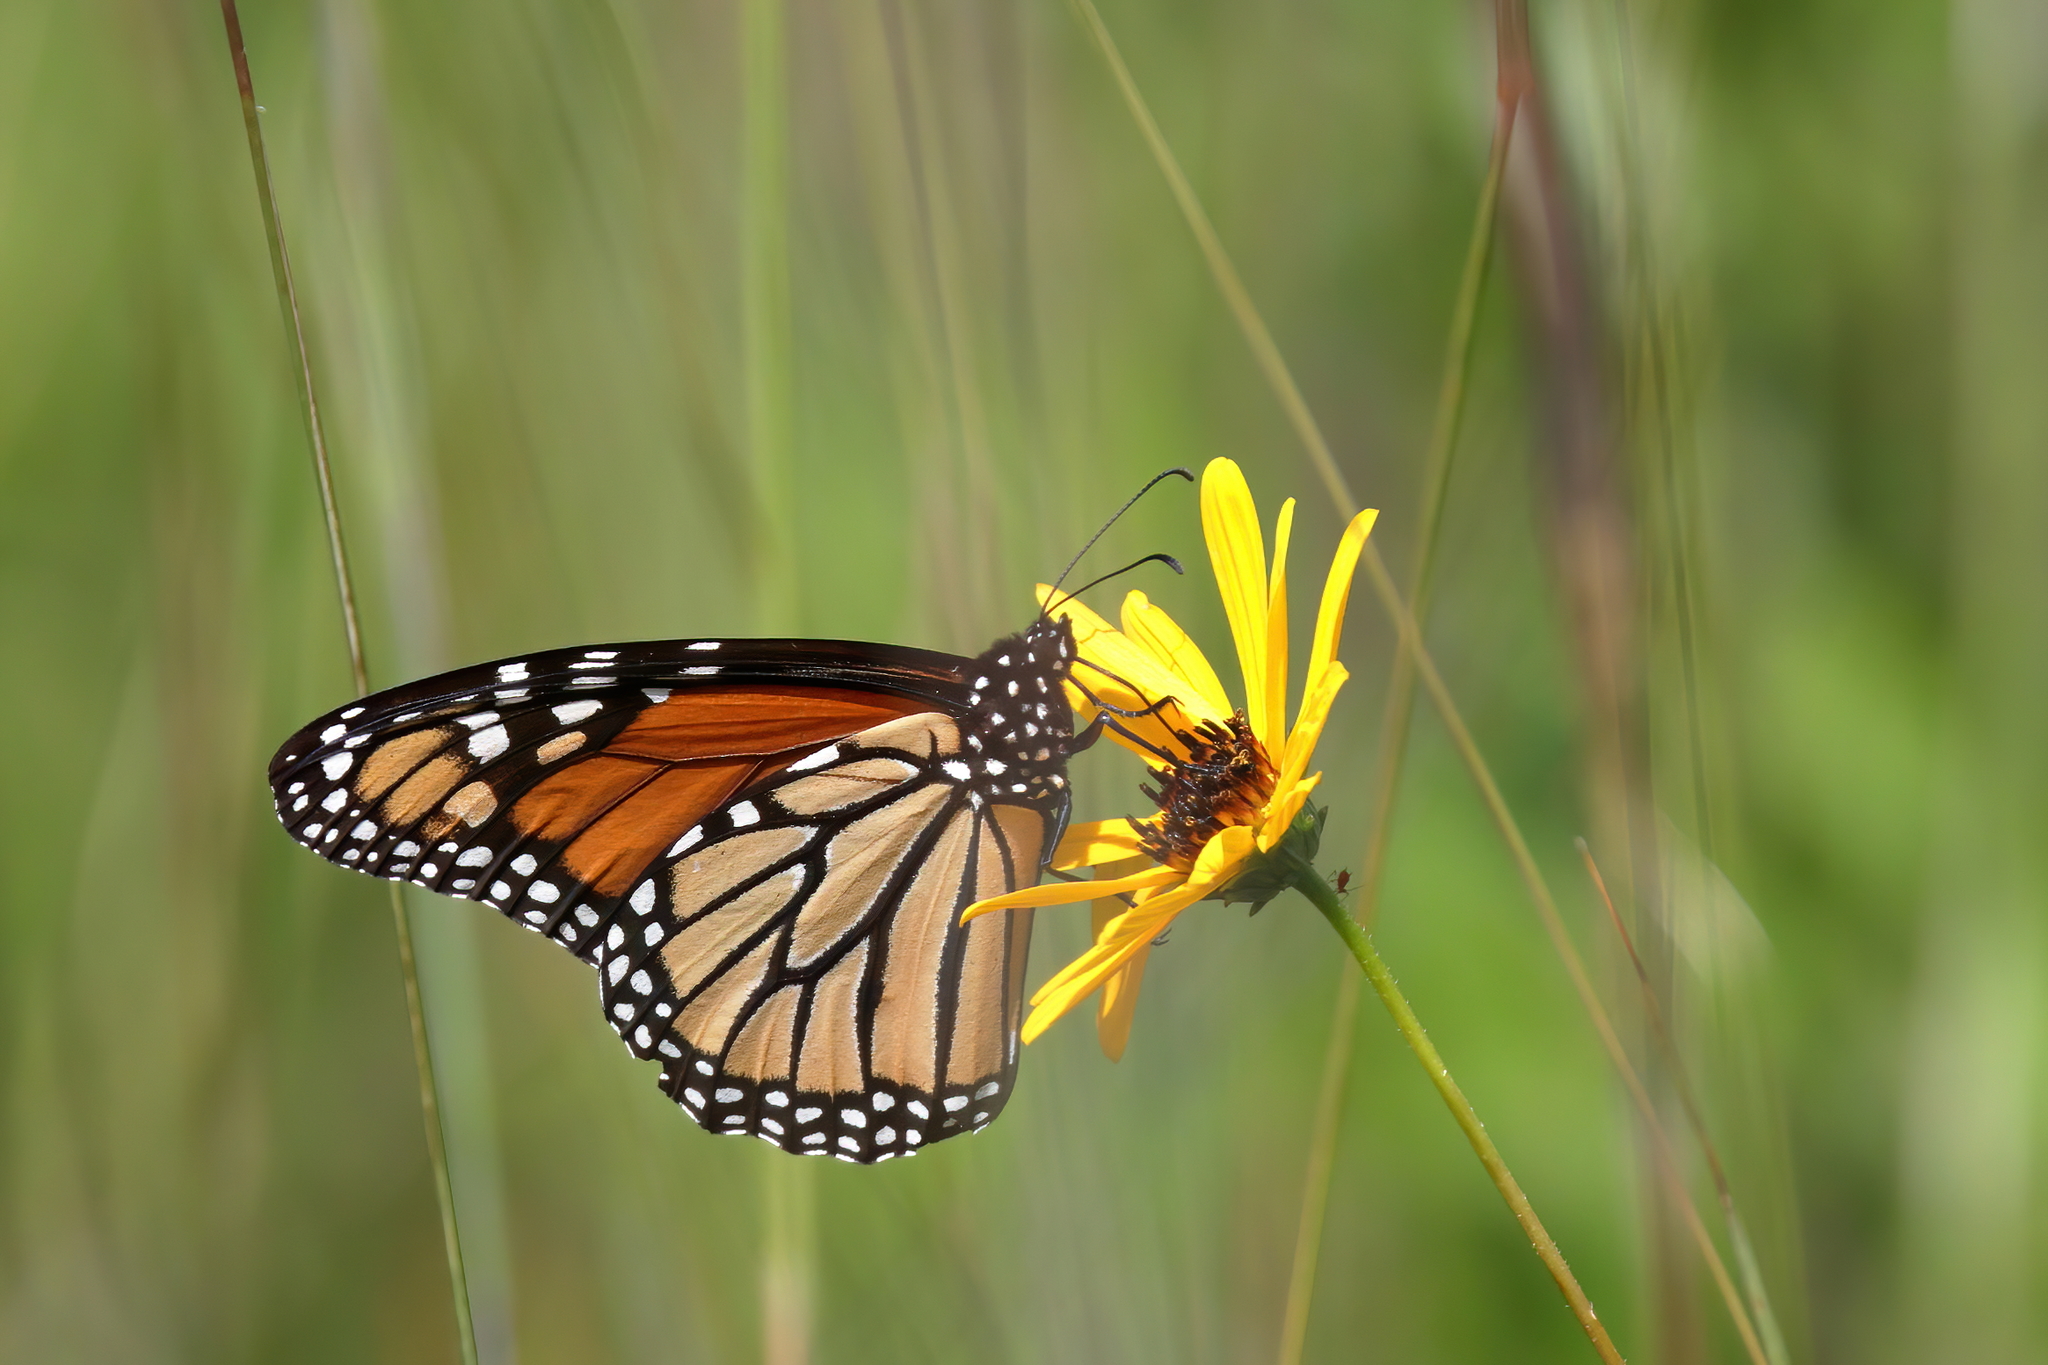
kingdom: Animalia
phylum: Arthropoda
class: Insecta
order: Lepidoptera
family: Nymphalidae
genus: Danaus
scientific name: Danaus plexippus
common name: Monarch
